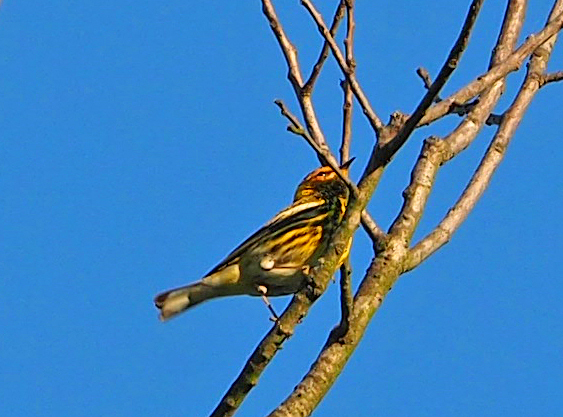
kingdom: Animalia
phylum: Chordata
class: Aves
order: Passeriformes
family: Parulidae
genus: Setophaga
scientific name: Setophaga tigrina
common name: Cape may warbler
